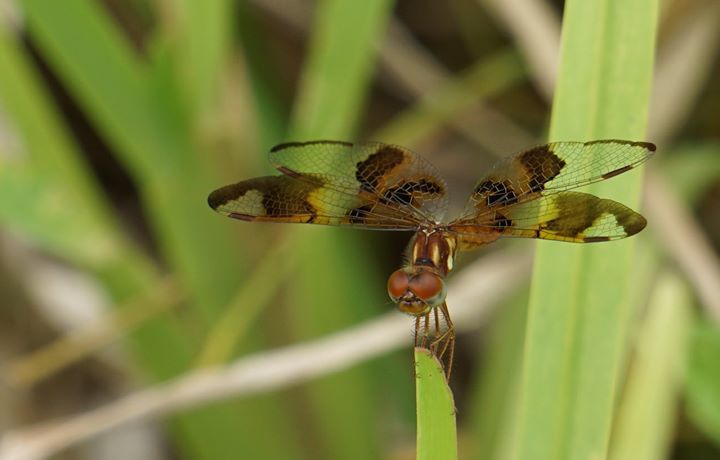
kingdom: Animalia
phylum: Arthropoda
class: Insecta
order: Odonata
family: Libellulidae
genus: Perithemis
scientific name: Perithemis tenera
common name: Eastern amberwing
